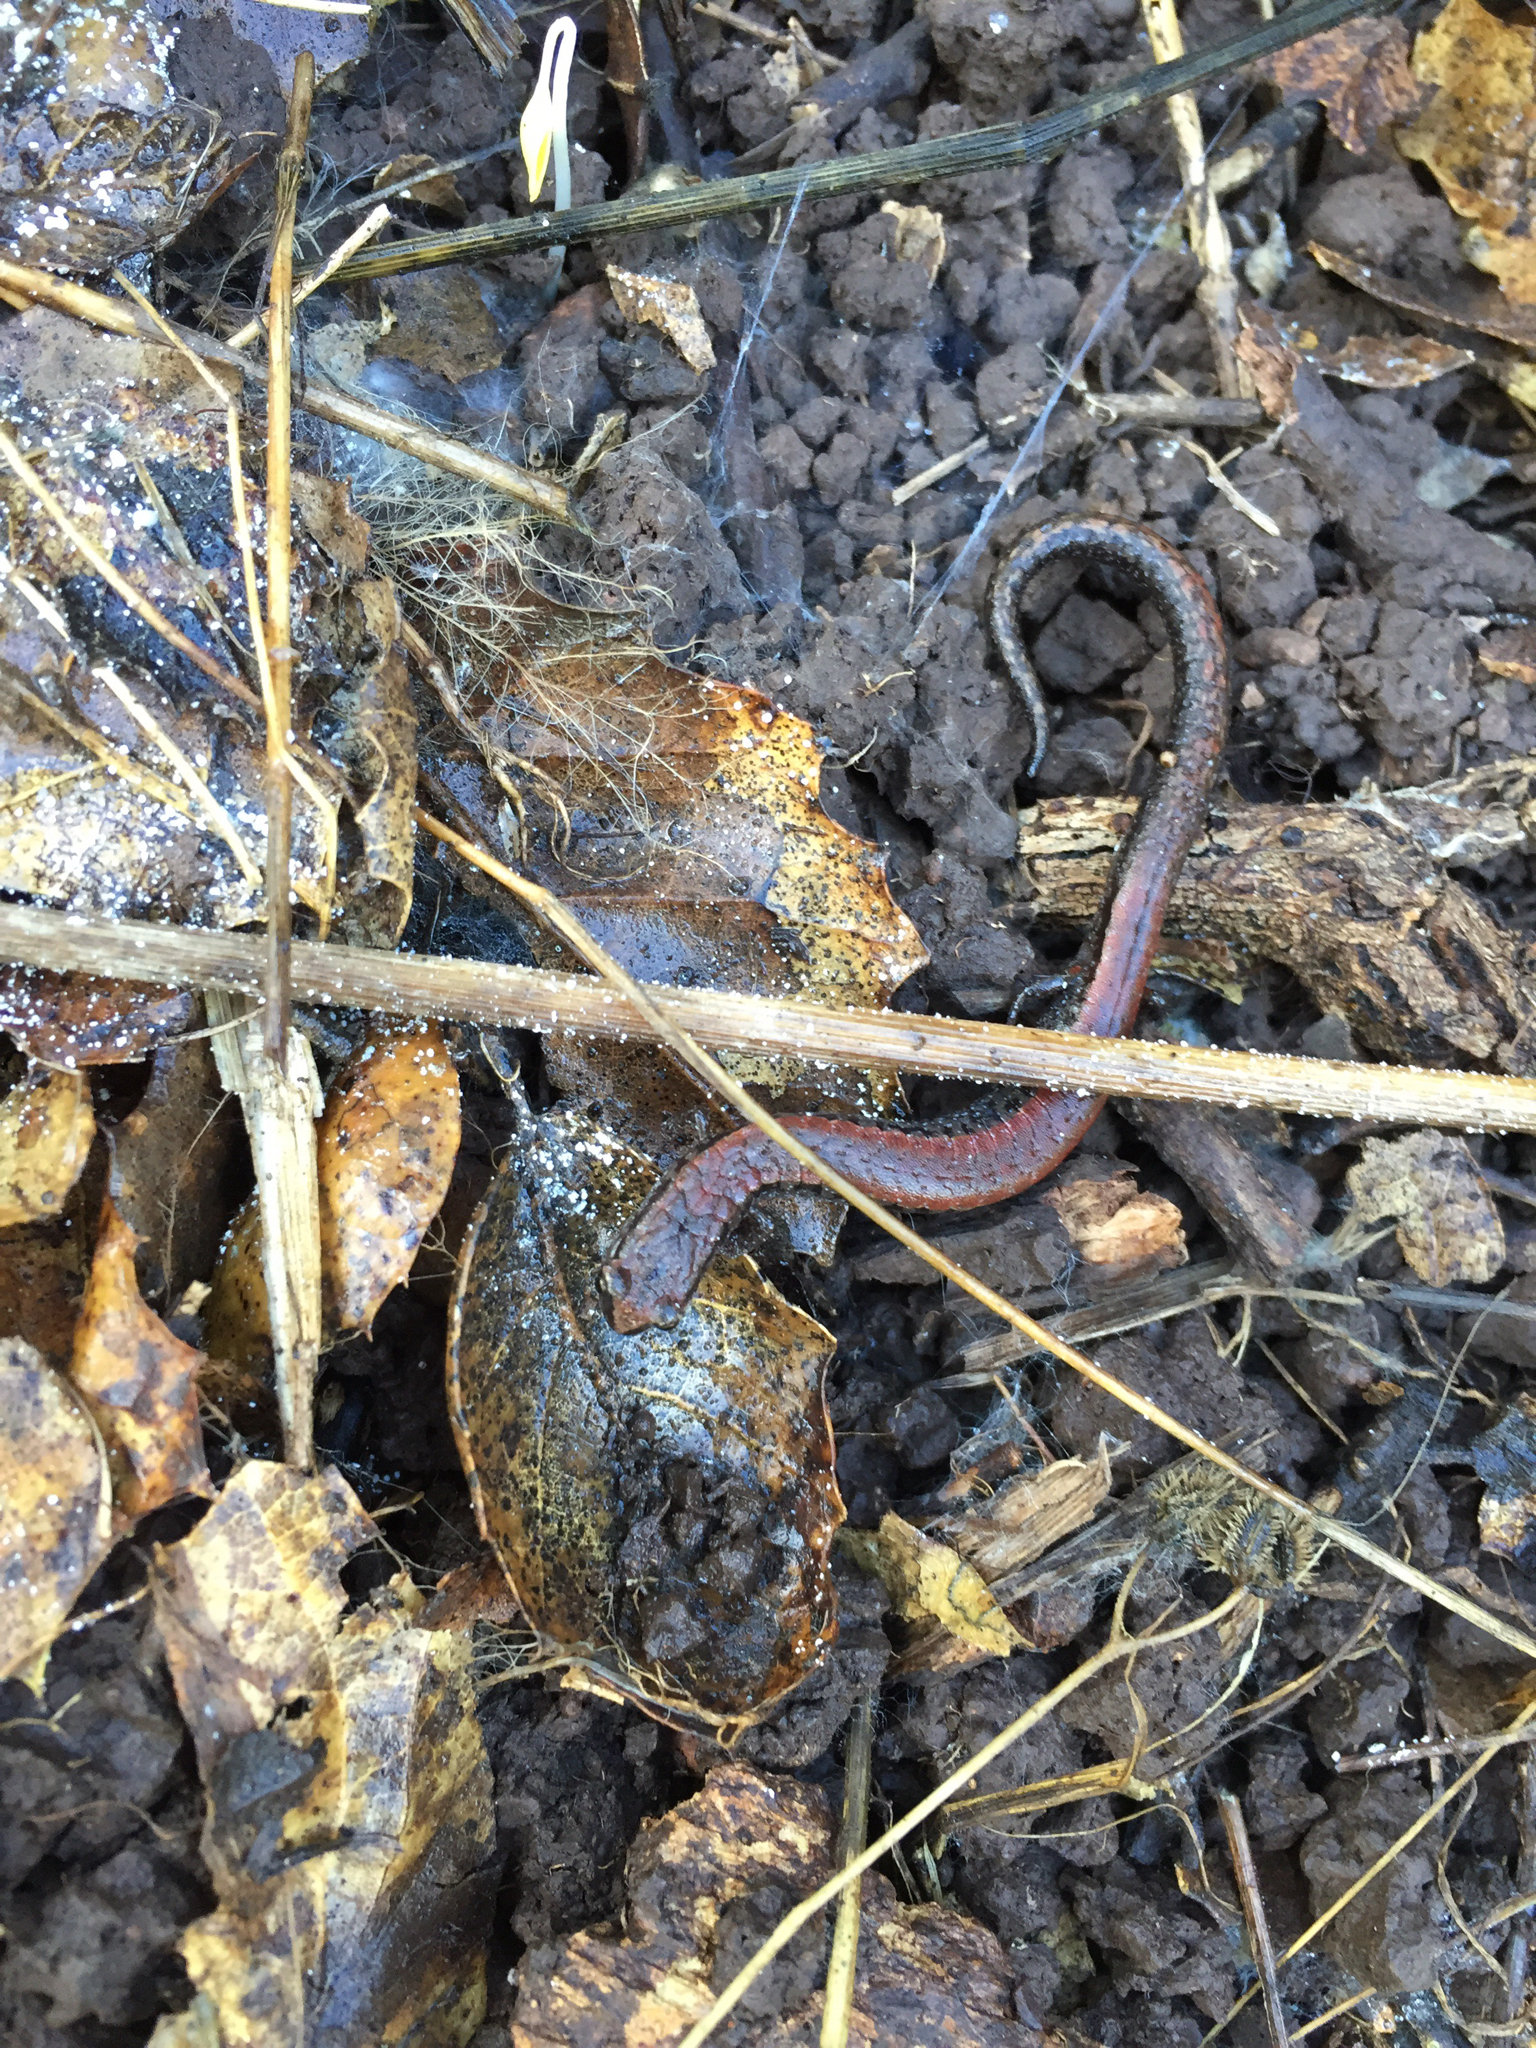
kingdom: Animalia
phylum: Chordata
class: Amphibia
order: Caudata
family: Plethodontidae
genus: Batrachoseps
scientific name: Batrachoseps attenuatus
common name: California slender salamander
